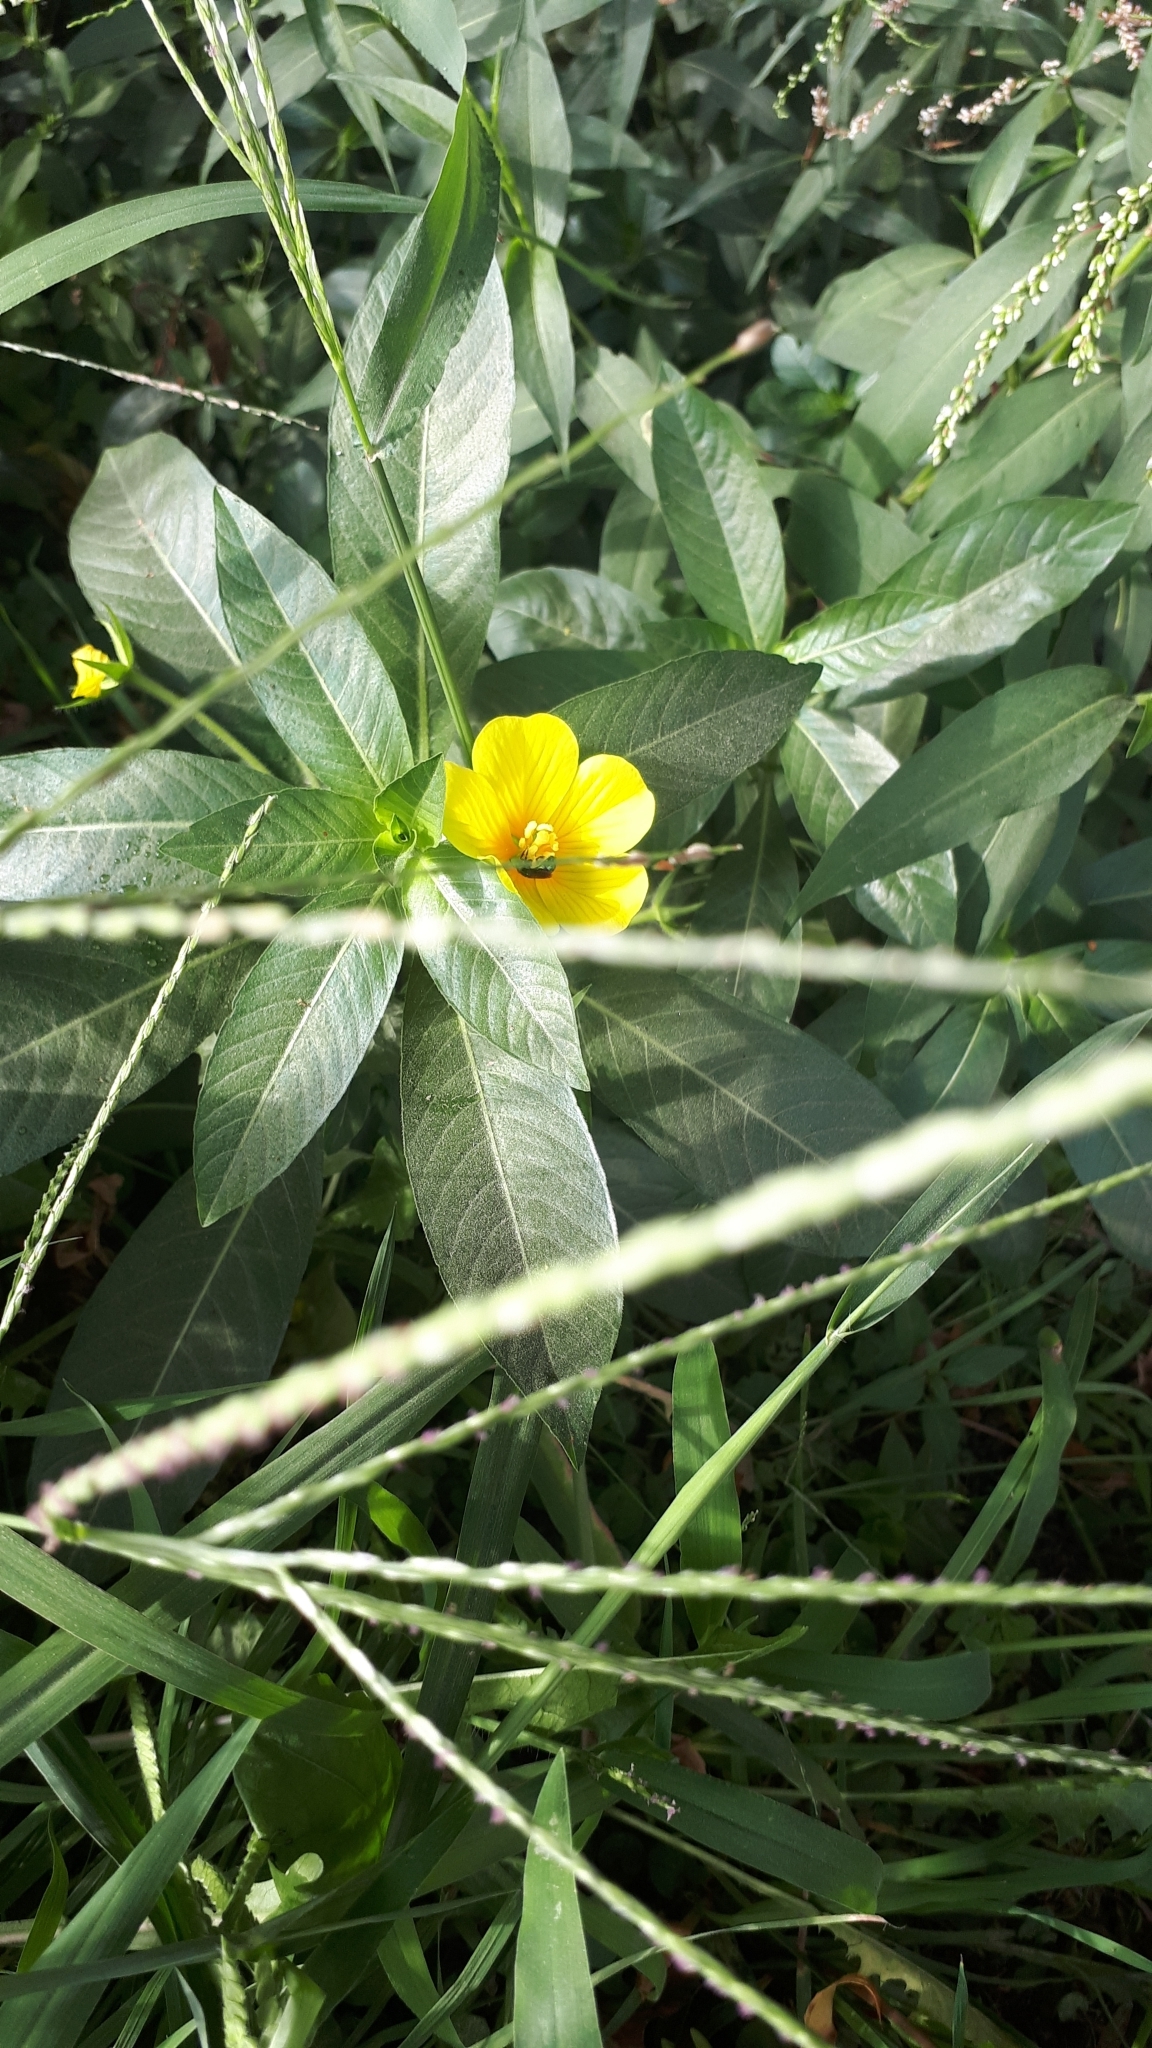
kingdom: Plantae
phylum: Tracheophyta
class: Magnoliopsida
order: Myrtales
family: Onagraceae
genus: Ludwigia
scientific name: Ludwigia peploides
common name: Floating primrose-willow
